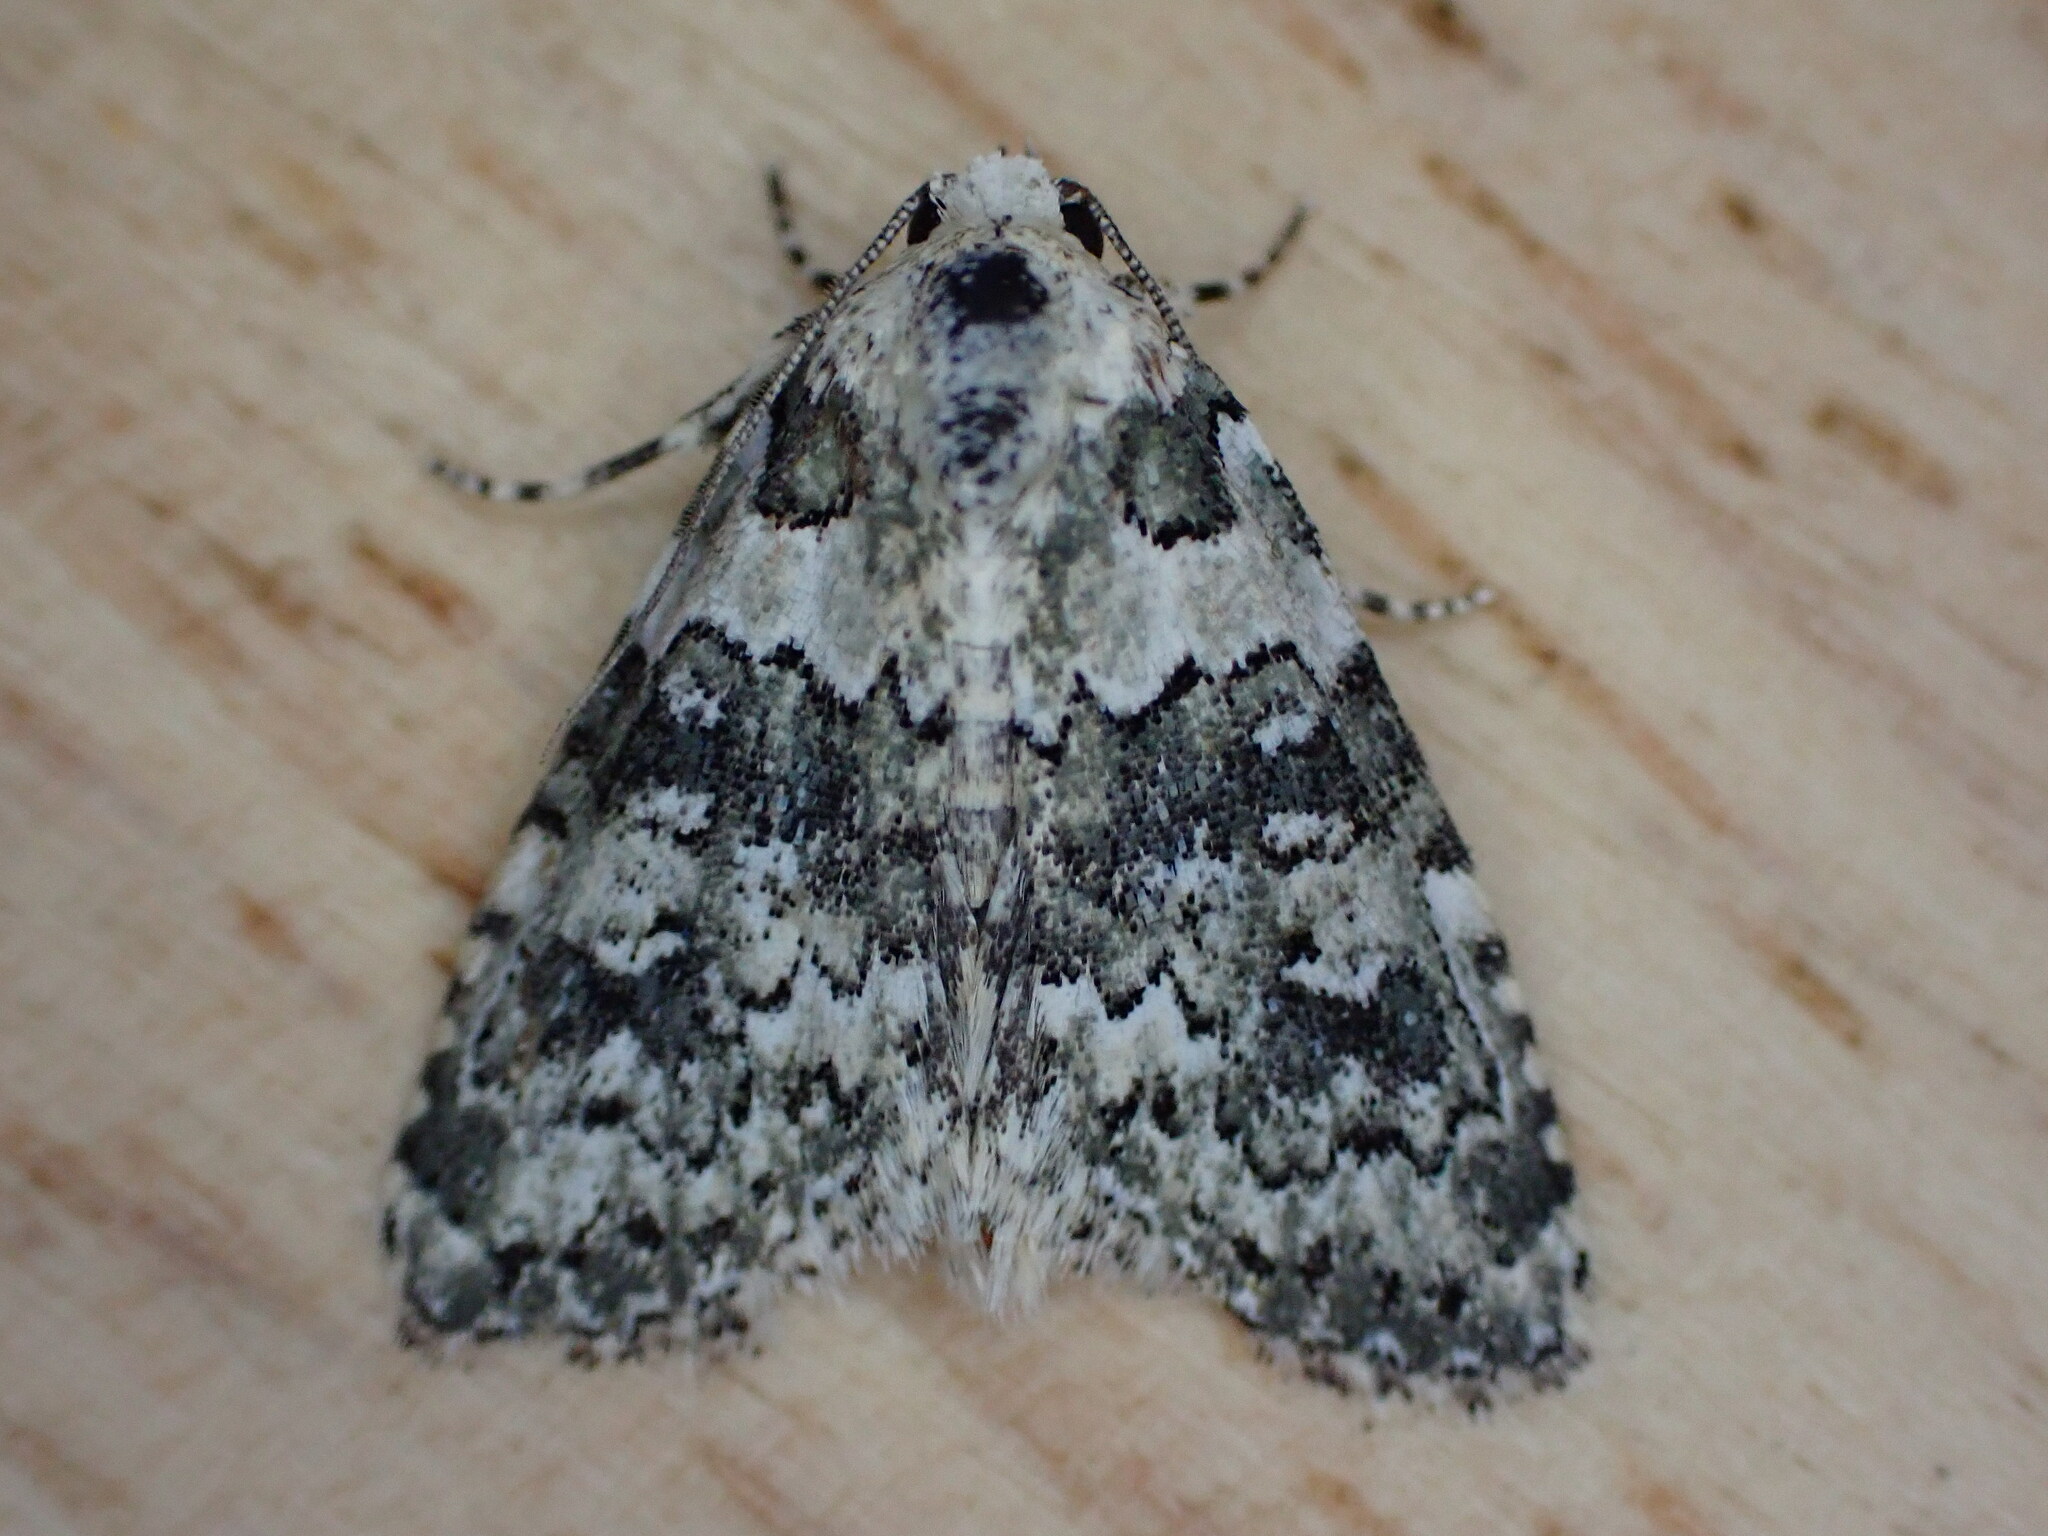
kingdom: Animalia
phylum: Arthropoda
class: Insecta
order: Lepidoptera
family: Noctuidae
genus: Bryophila
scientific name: Bryophila domestica
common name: Marbled beauty
